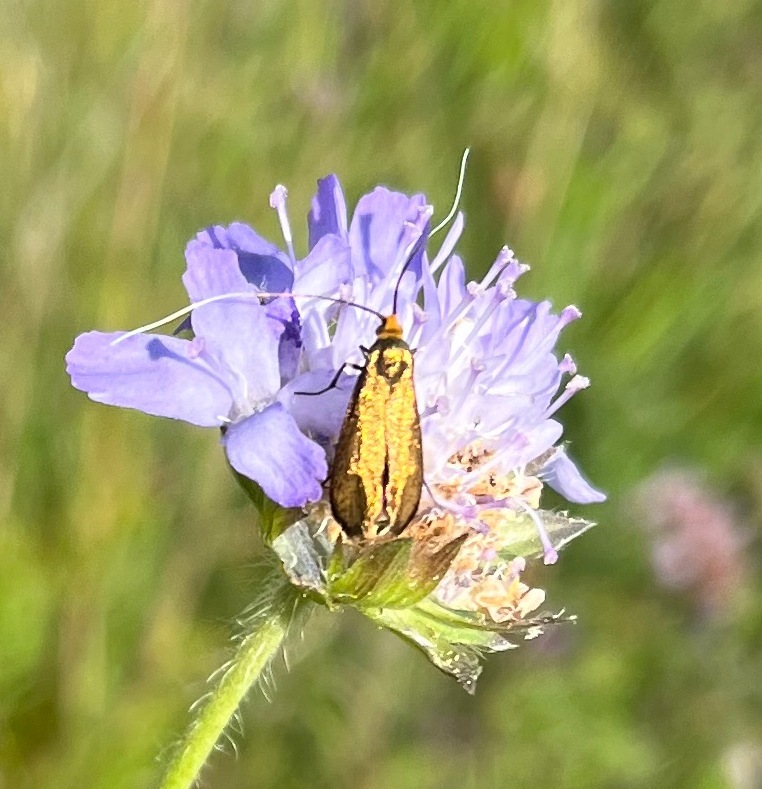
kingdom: Animalia
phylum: Arthropoda
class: Insecta
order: Lepidoptera
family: Adelidae
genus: Nemophora
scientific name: Nemophora metallica
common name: Brassy long-horn
